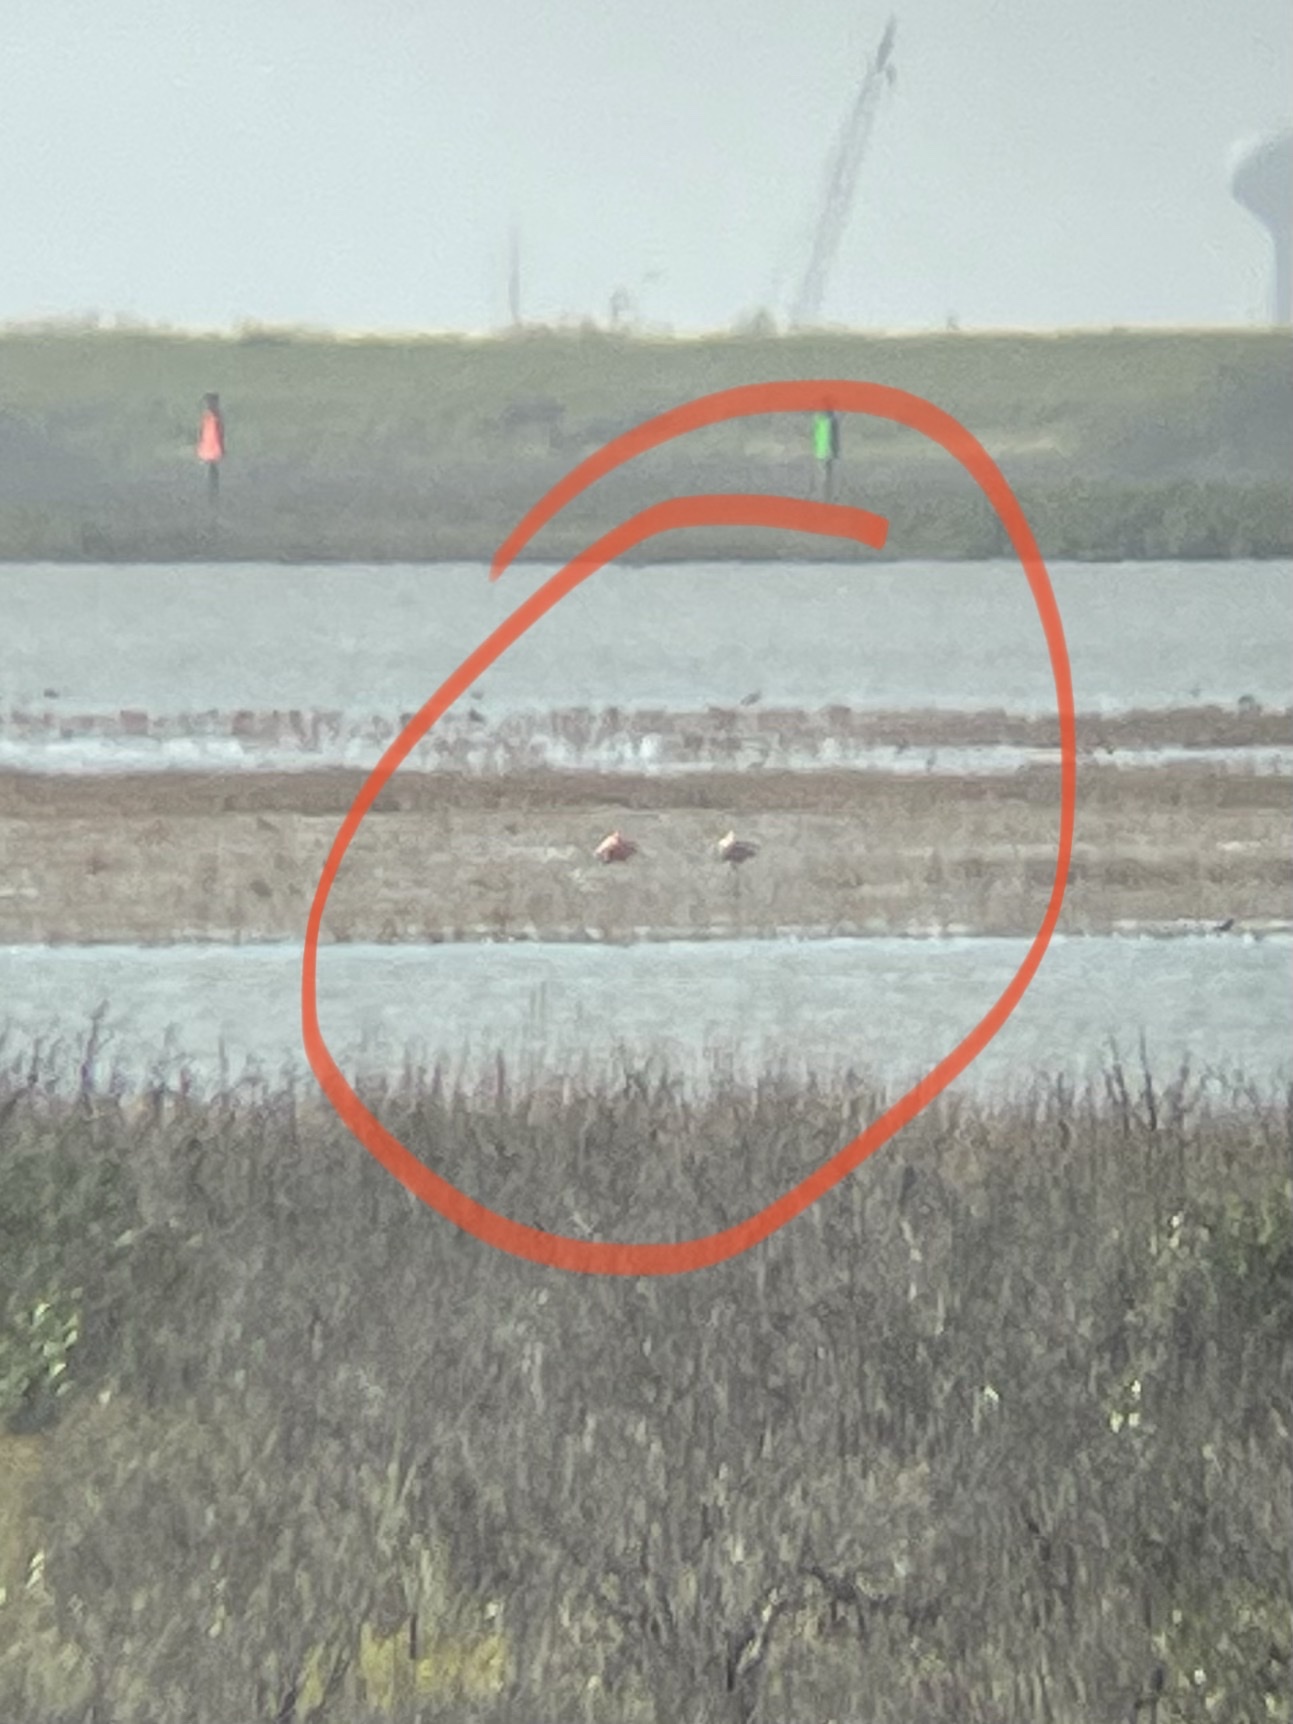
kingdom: Animalia
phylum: Chordata
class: Aves
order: Phoenicopteriformes
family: Phoenicopteridae
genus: Phoenicopterus
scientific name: Phoenicopterus ruber
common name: American flamingo
